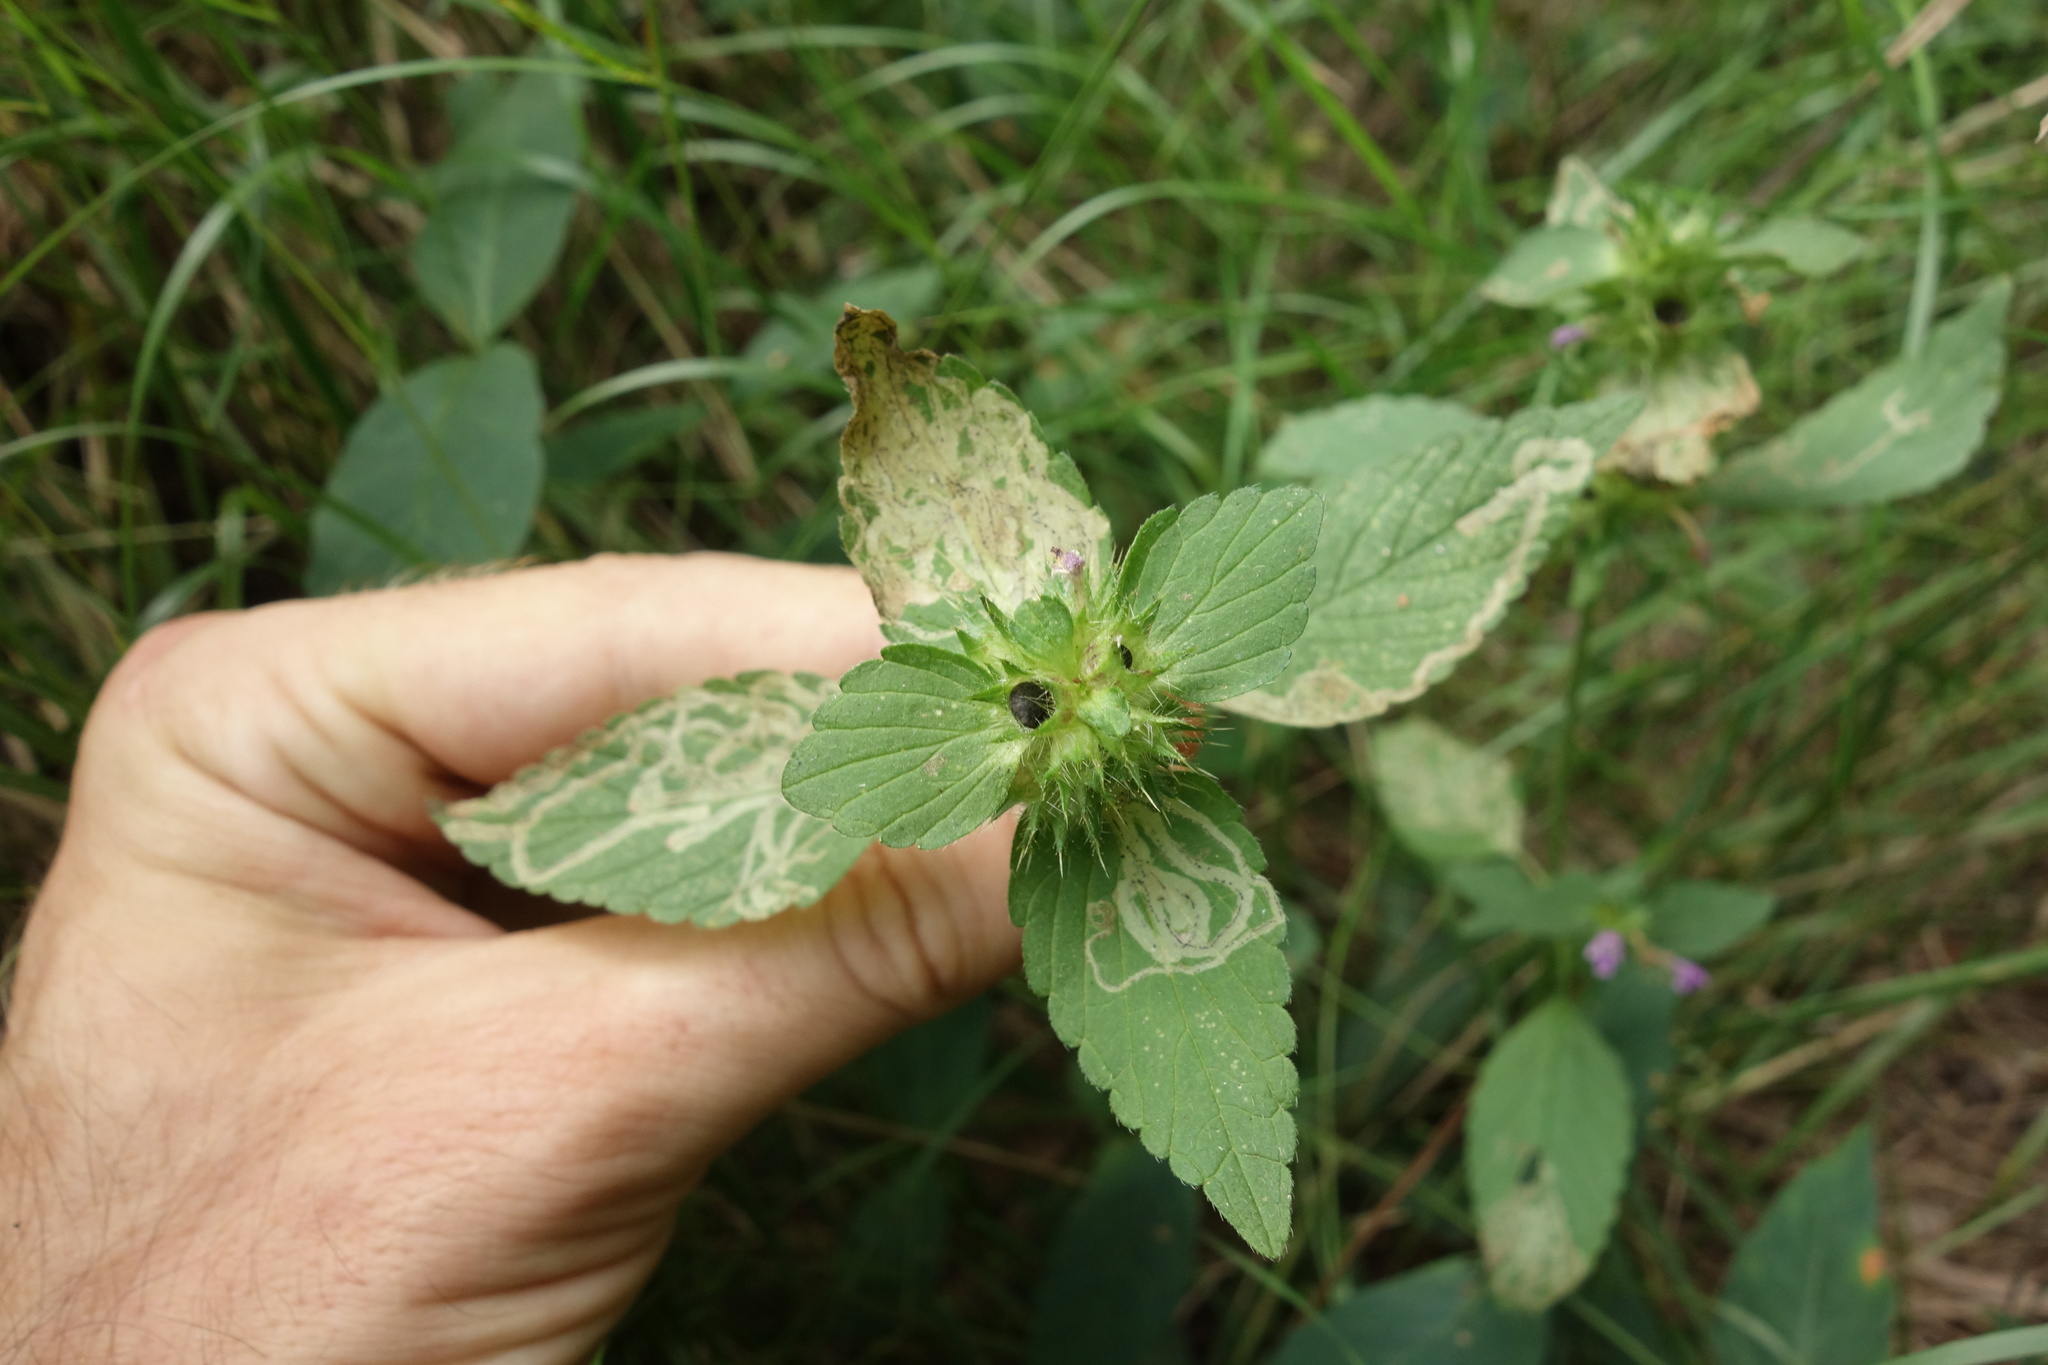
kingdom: Plantae
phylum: Tracheophyta
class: Magnoliopsida
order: Lamiales
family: Lamiaceae
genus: Galeopsis
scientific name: Galeopsis bifida
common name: Bifid hemp-nettle
